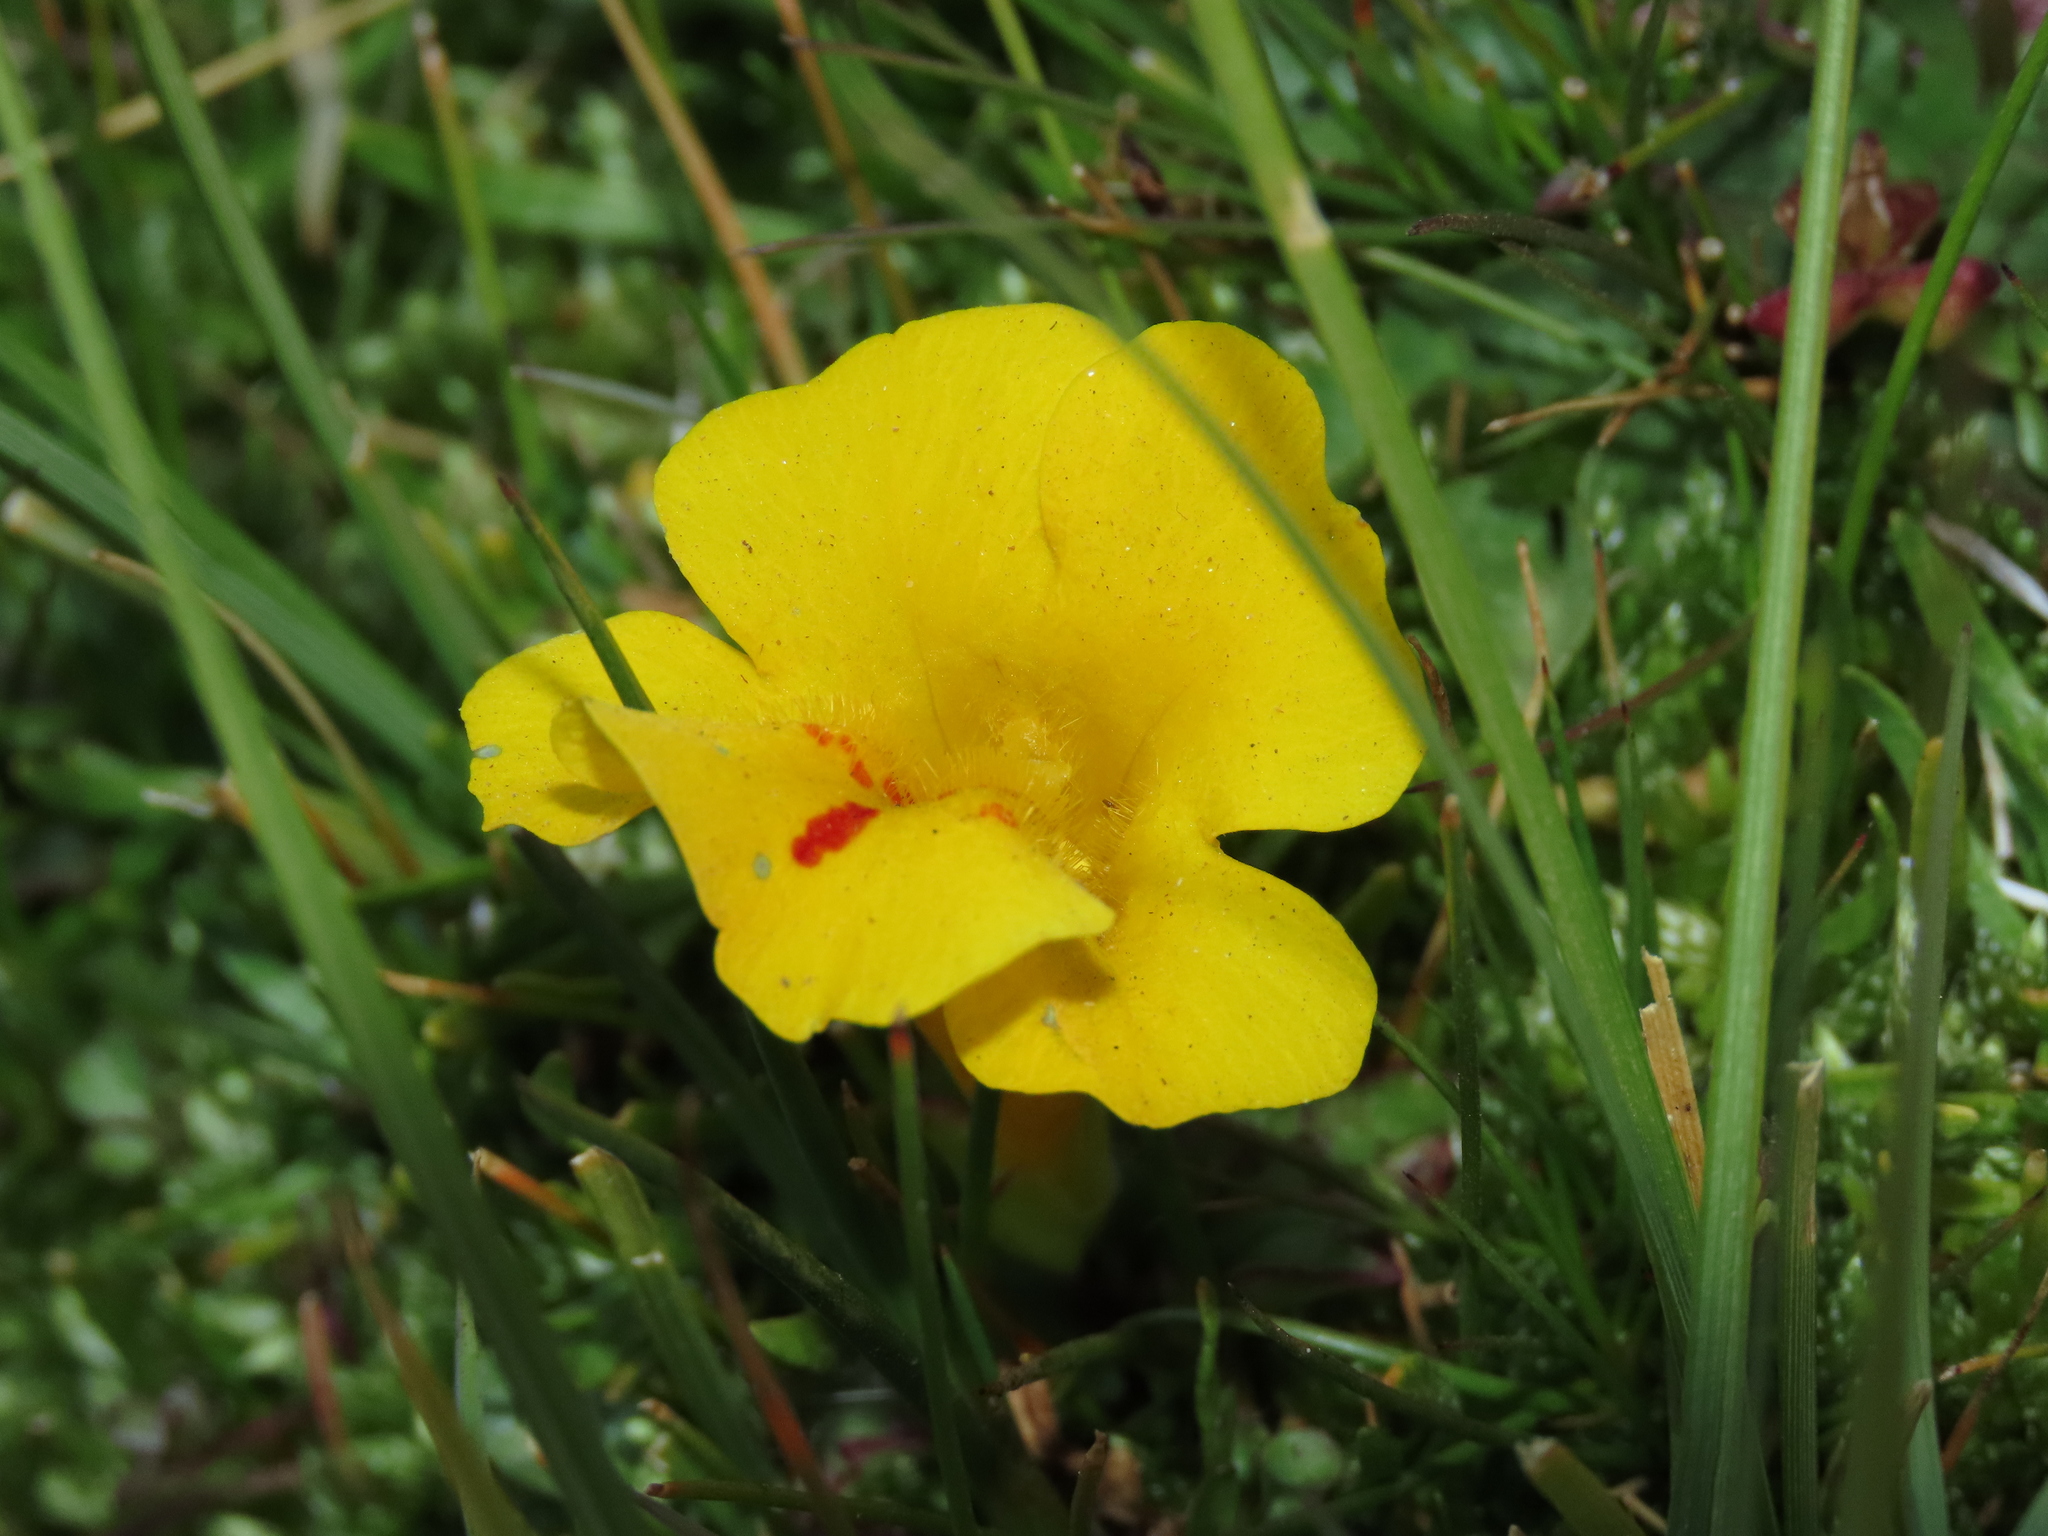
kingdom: Plantae
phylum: Tracheophyta
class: Magnoliopsida
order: Lamiales
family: Phrymaceae
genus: Erythranthe
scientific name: Erythranthe depressa
